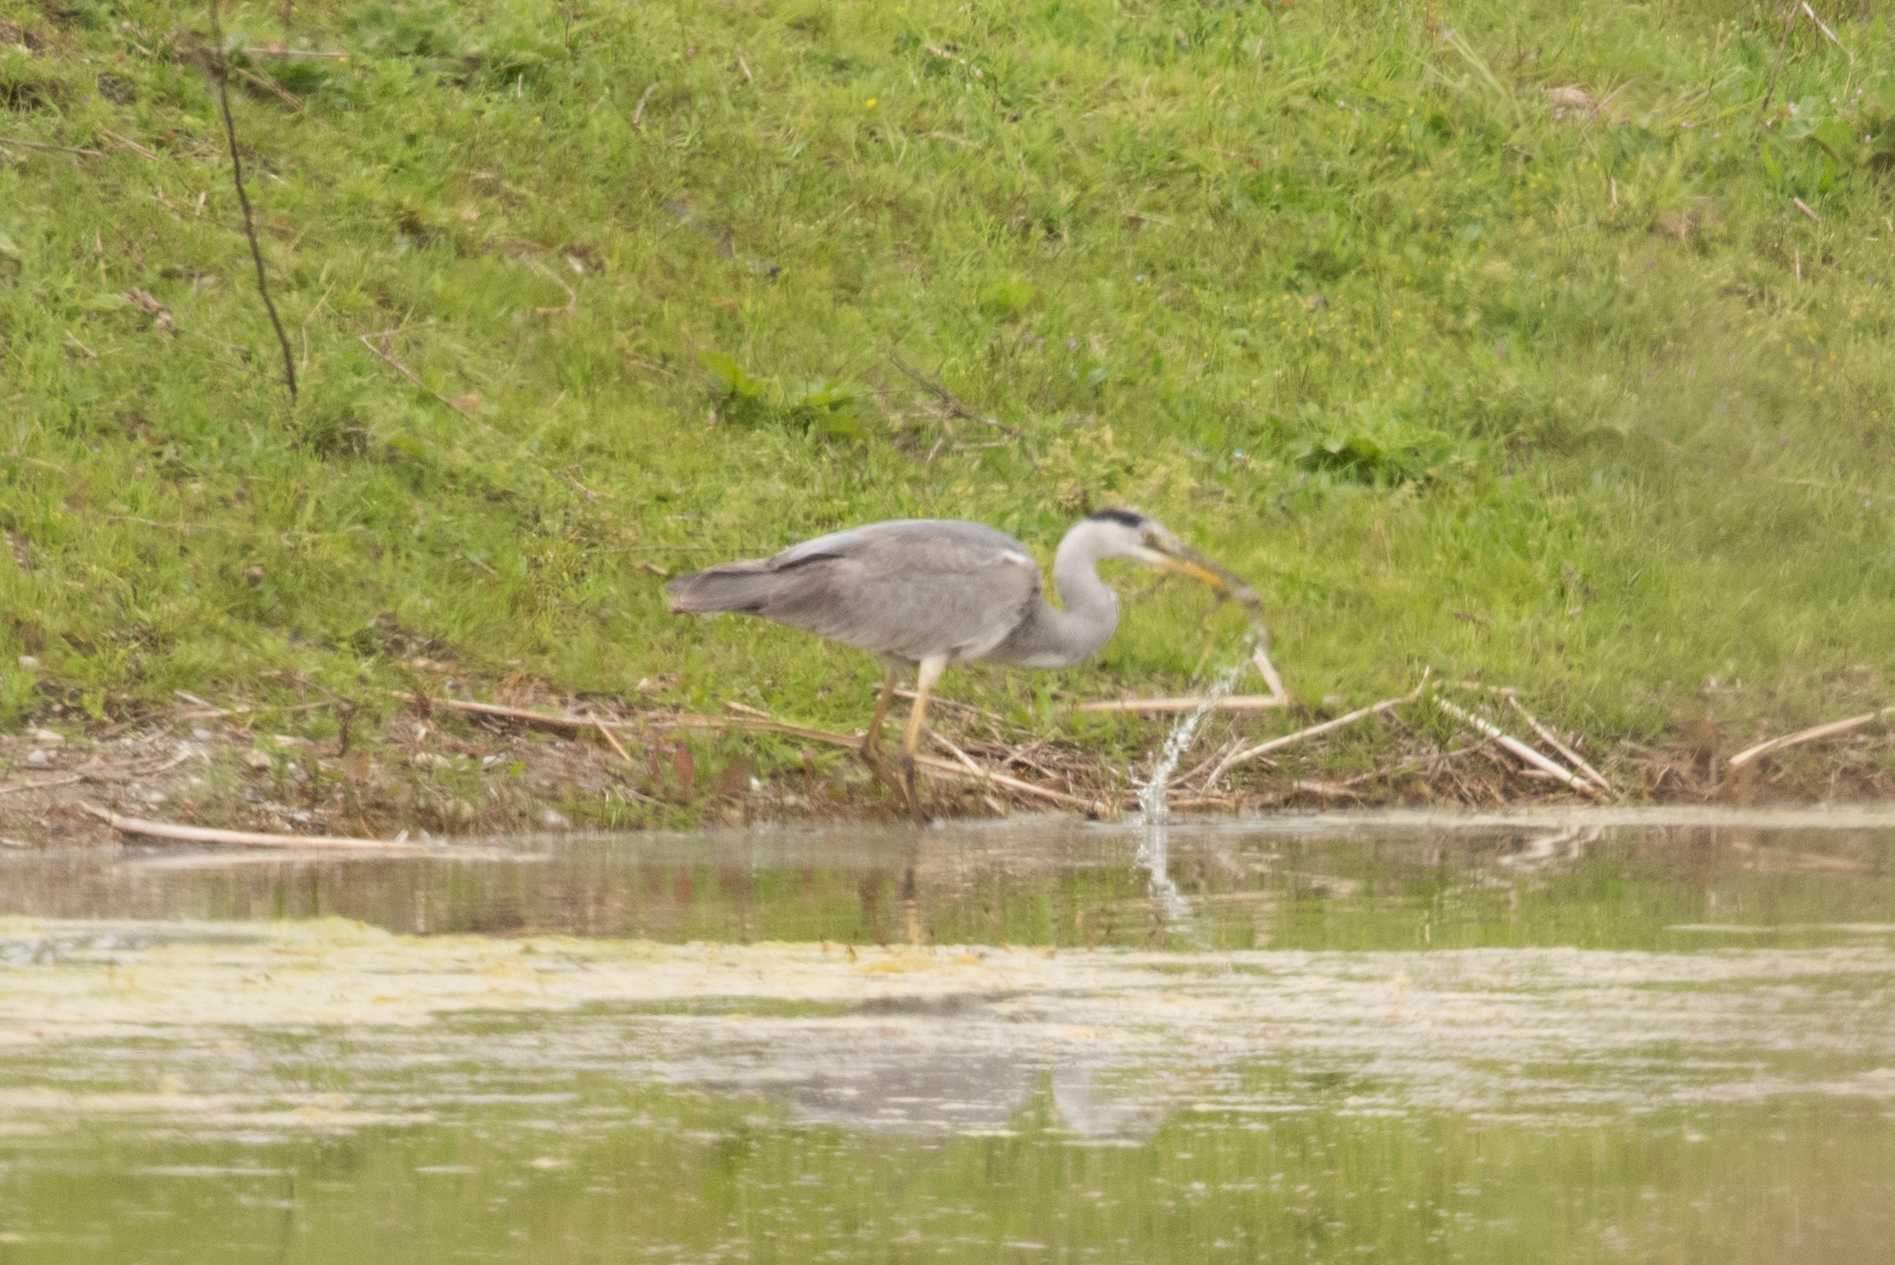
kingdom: Animalia
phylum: Chordata
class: Aves
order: Pelecaniformes
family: Ardeidae
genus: Ardea
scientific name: Ardea cinerea
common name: Grey heron
